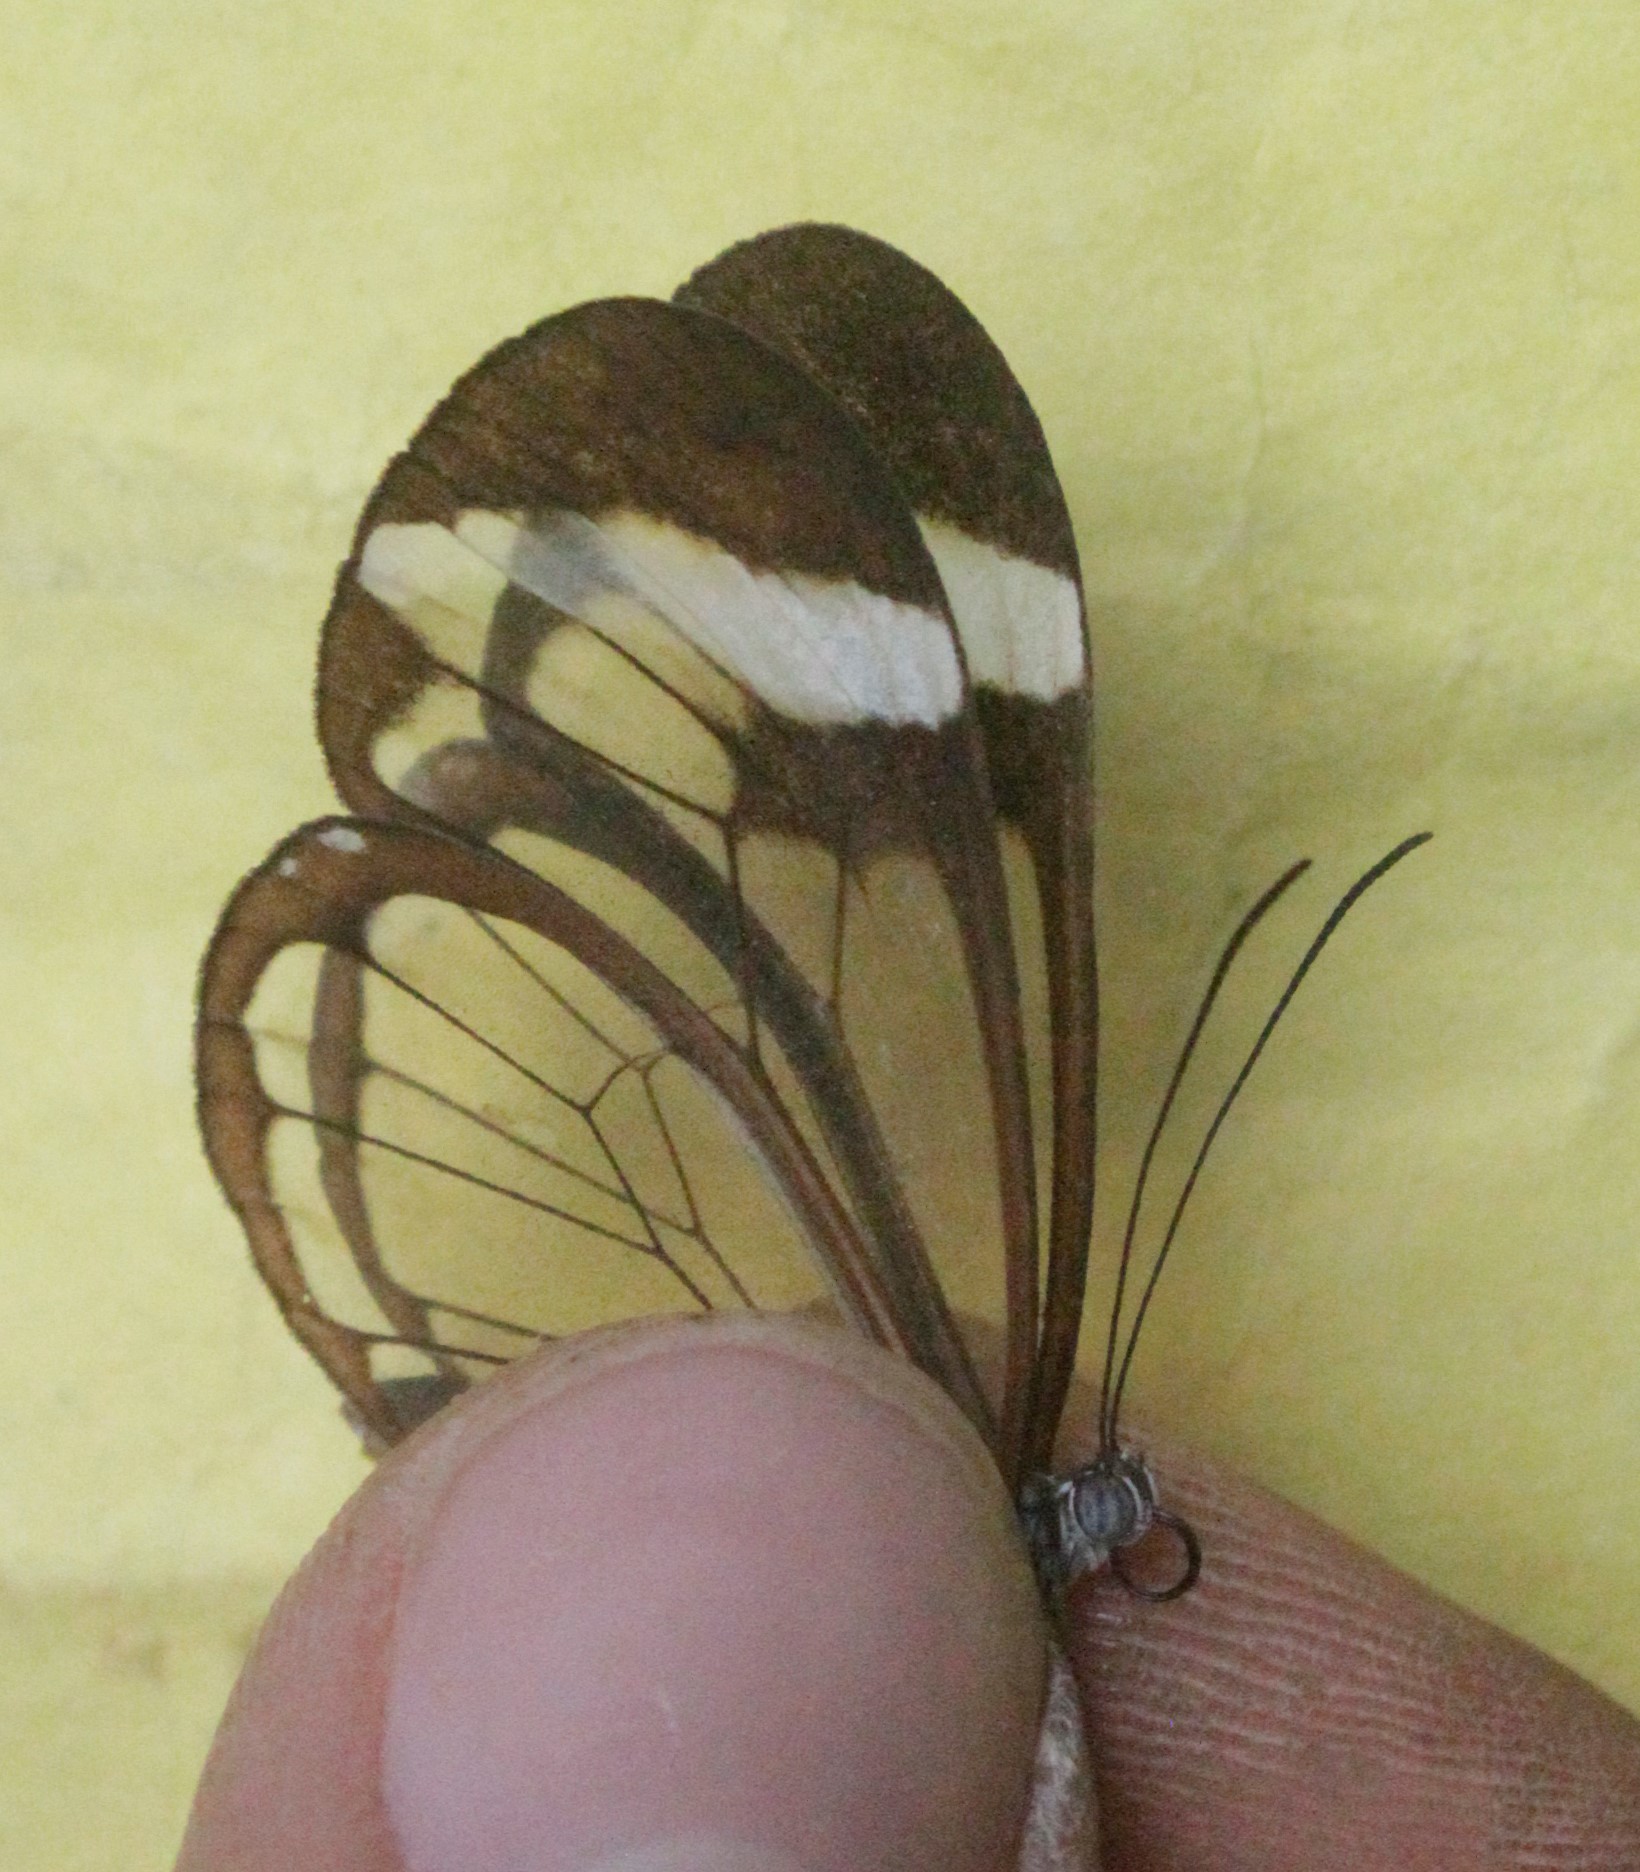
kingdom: Animalia
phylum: Arthropoda
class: Insecta
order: Lepidoptera
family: Nymphalidae
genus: Greta
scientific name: Greta morgane
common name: Thick-tipped greta
